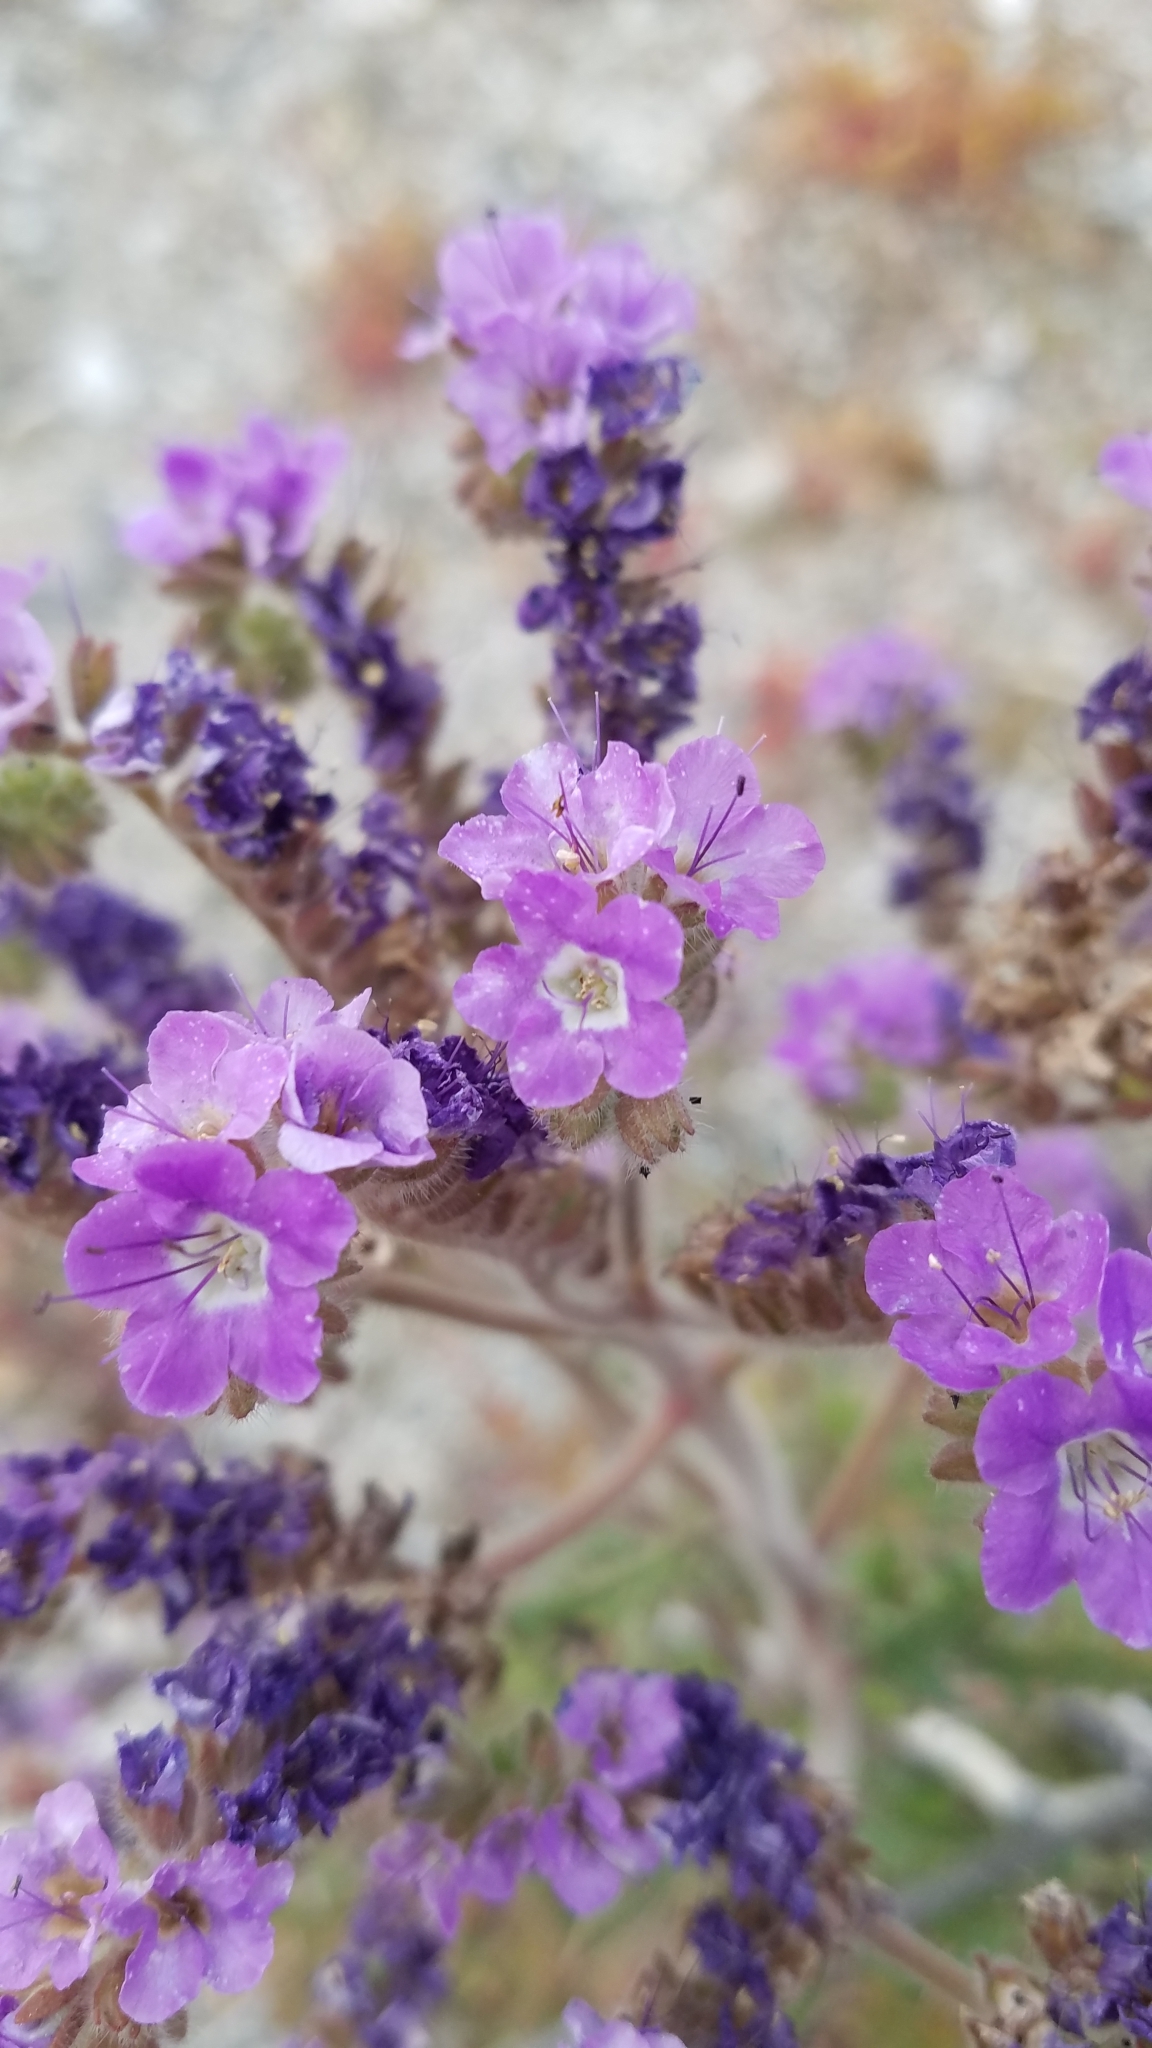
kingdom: Plantae
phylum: Tracheophyta
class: Magnoliopsida
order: Boraginales
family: Hydrophyllaceae
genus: Phacelia
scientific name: Phacelia crenulata
